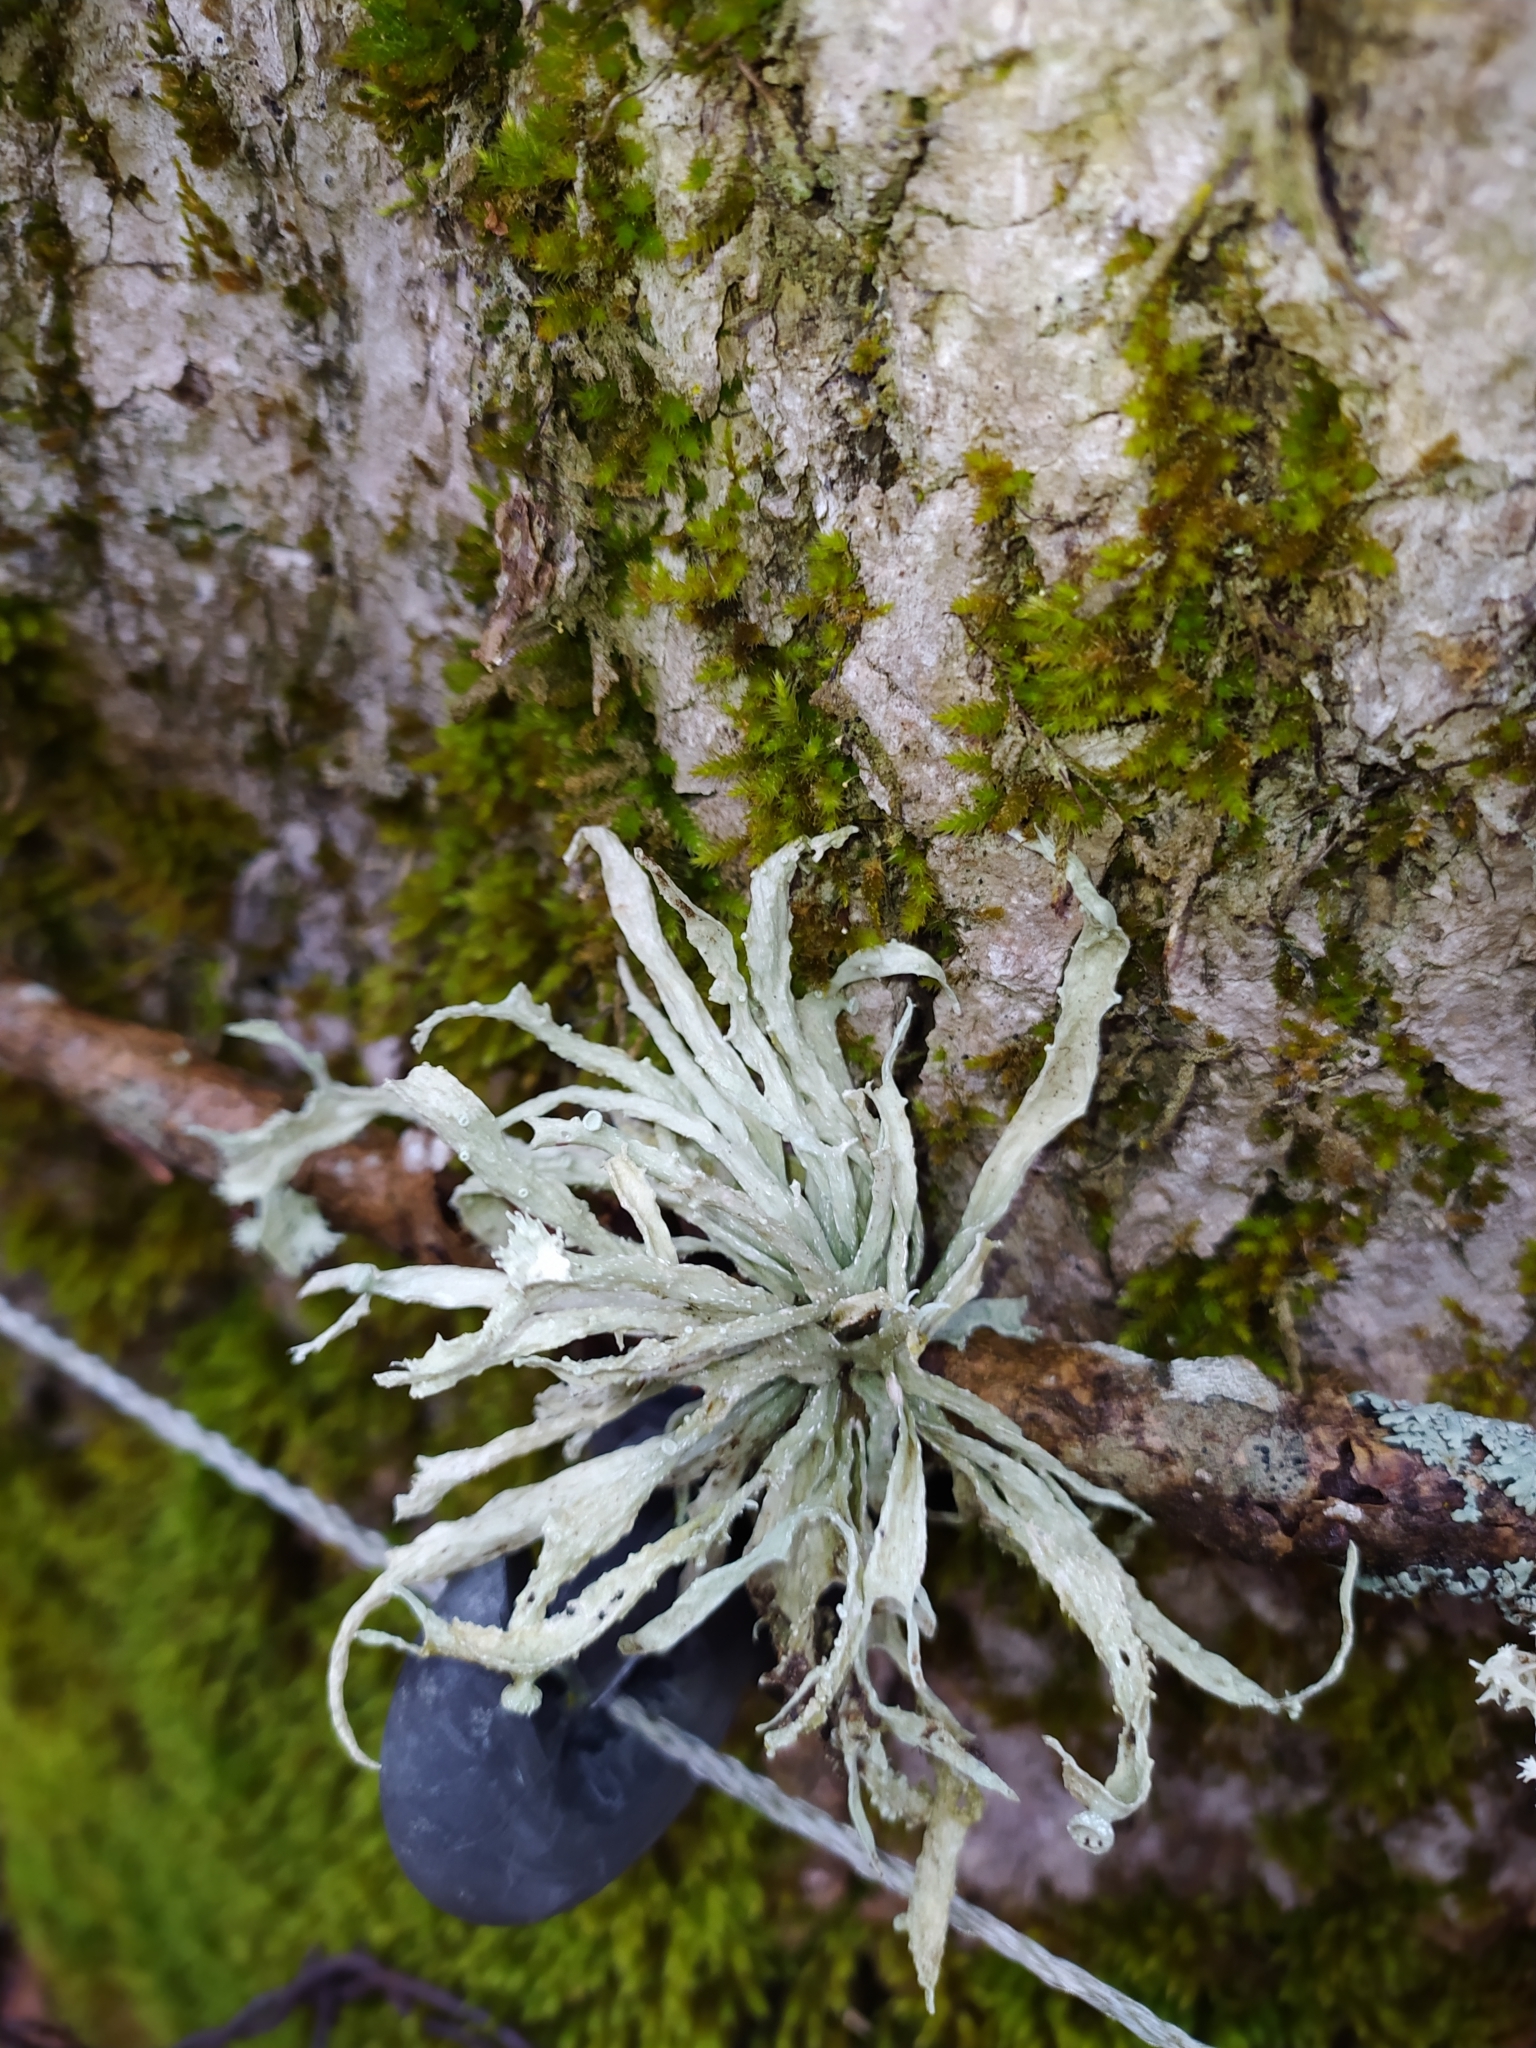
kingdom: Fungi
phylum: Ascomycota
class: Lecanoromycetes
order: Lecanorales
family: Ramalinaceae
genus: Ramalina
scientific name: Ramalina fraxinea
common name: Cartilage lichen
